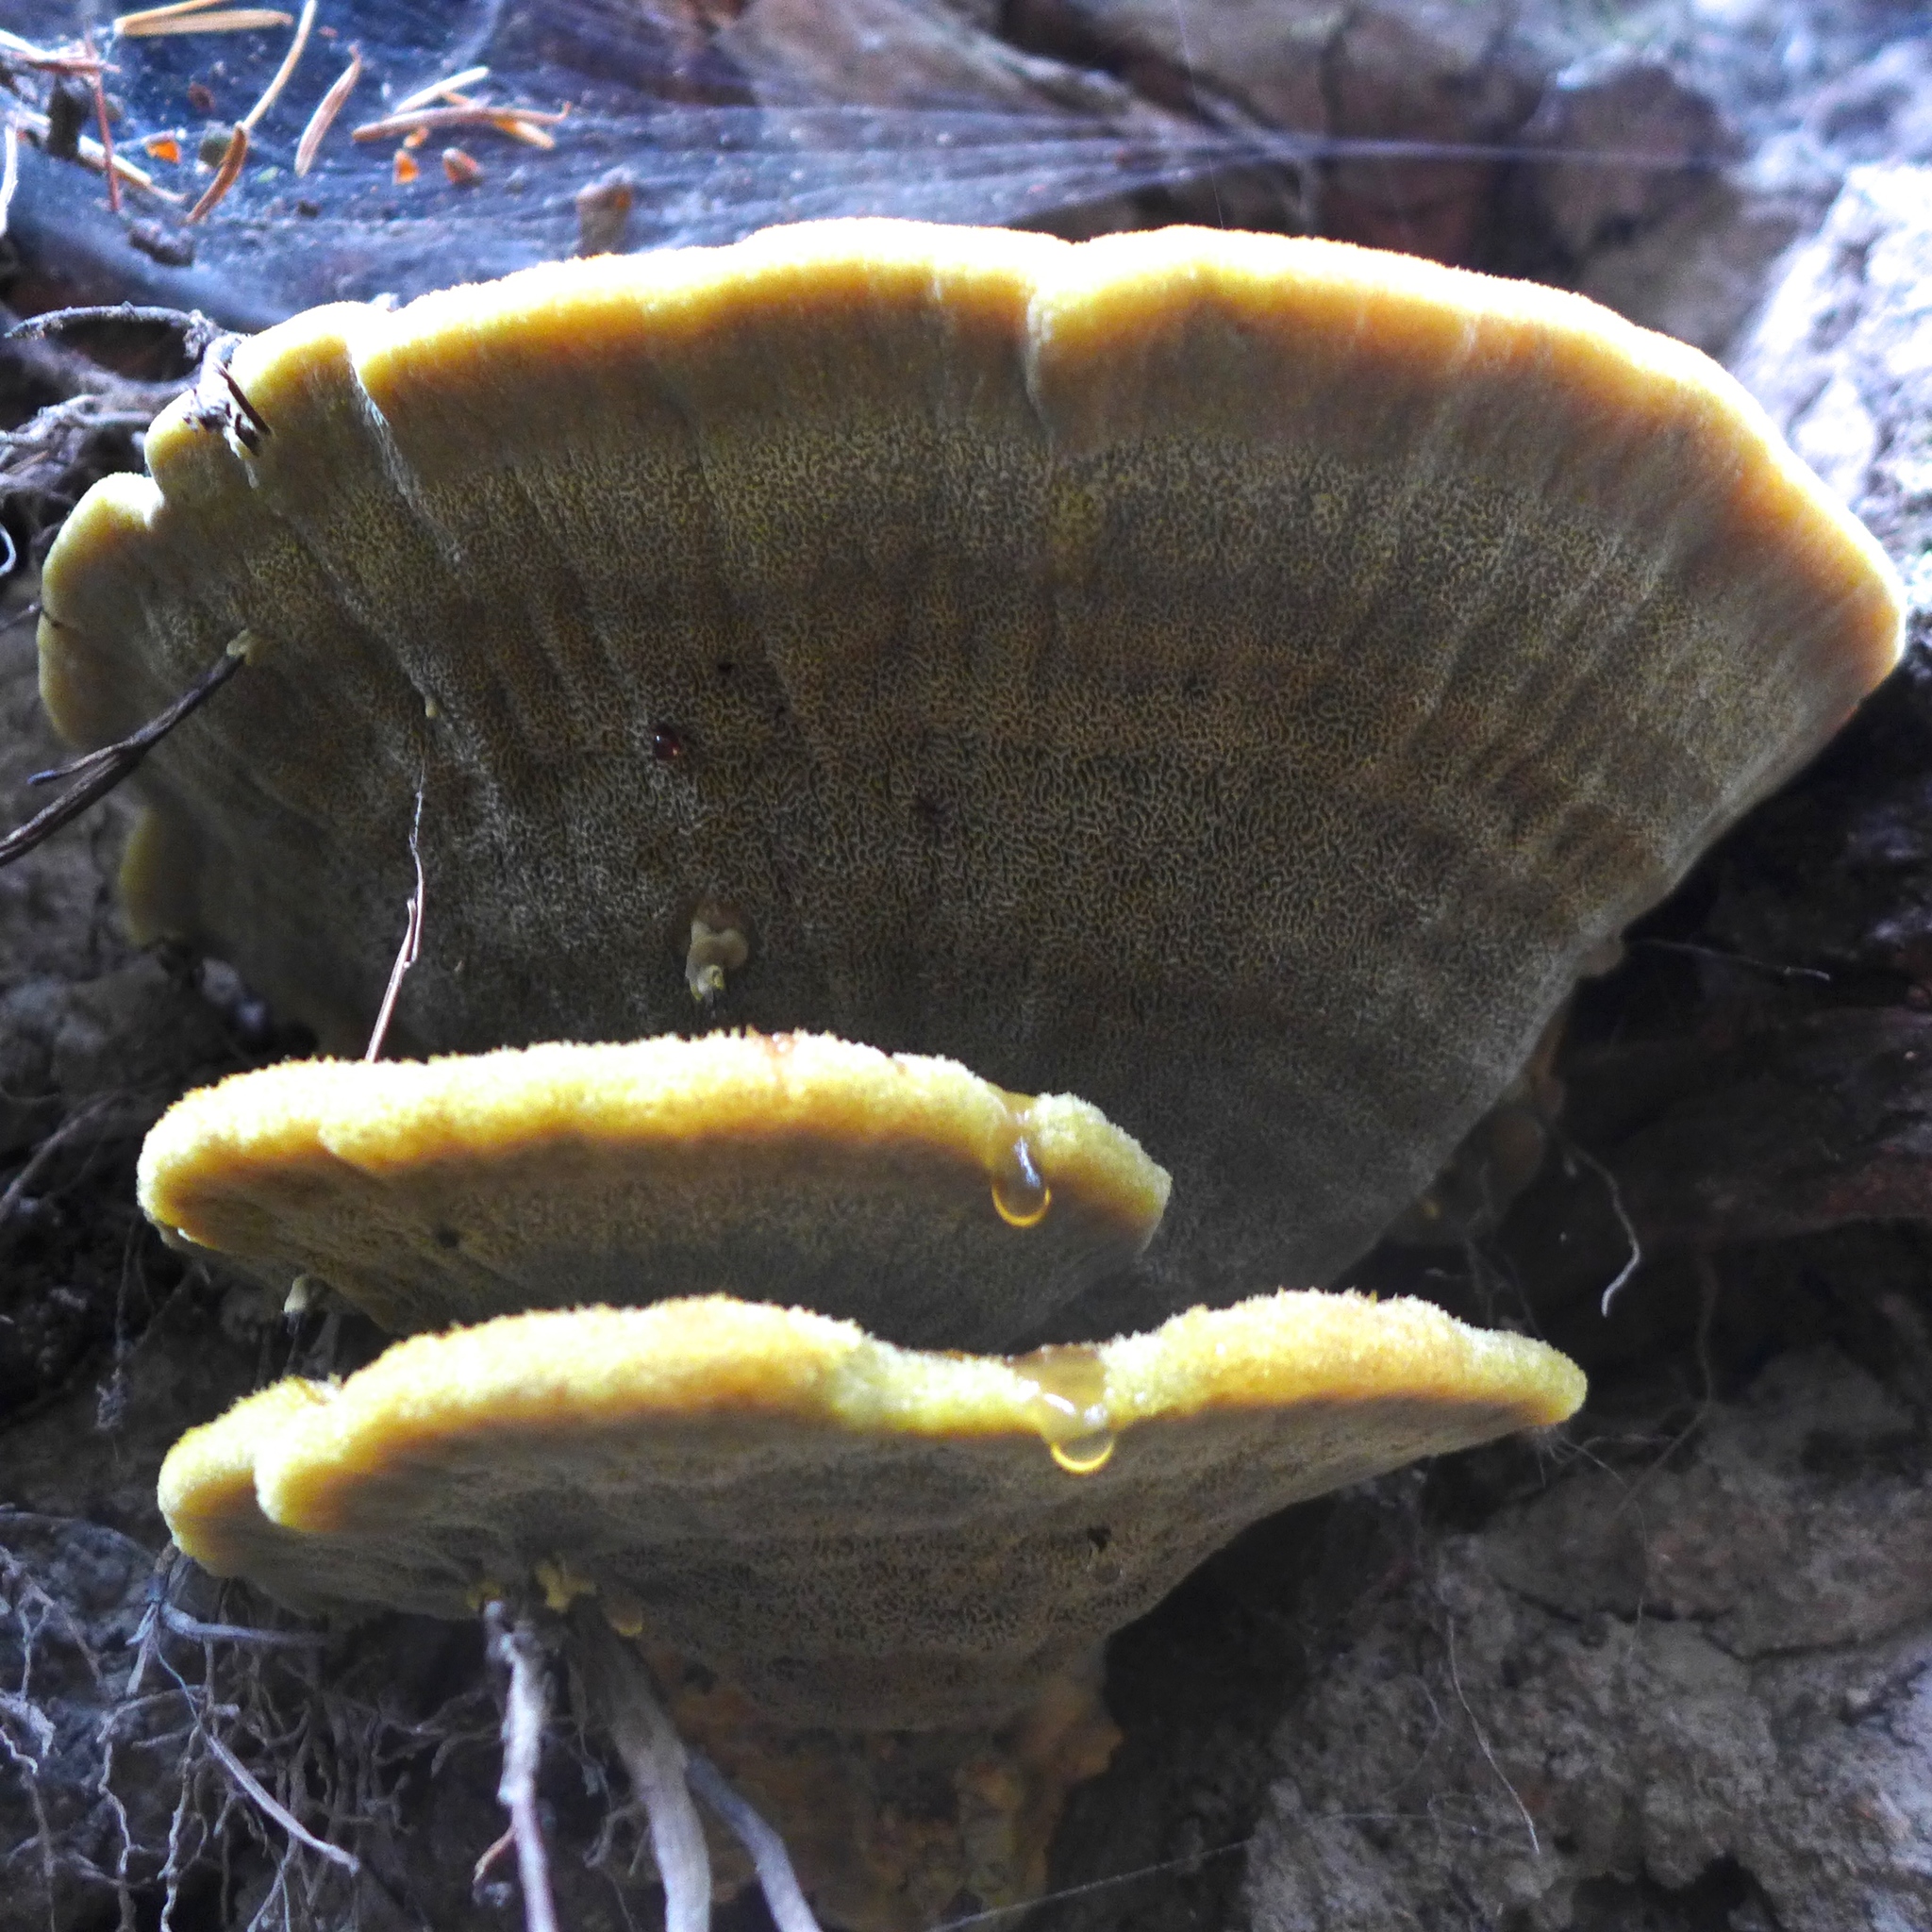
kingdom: Fungi
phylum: Basidiomycota
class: Agaricomycetes
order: Polyporales
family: Laetiporaceae
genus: Phaeolus
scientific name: Phaeolus schweinitzii
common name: Dyer's mazegill
